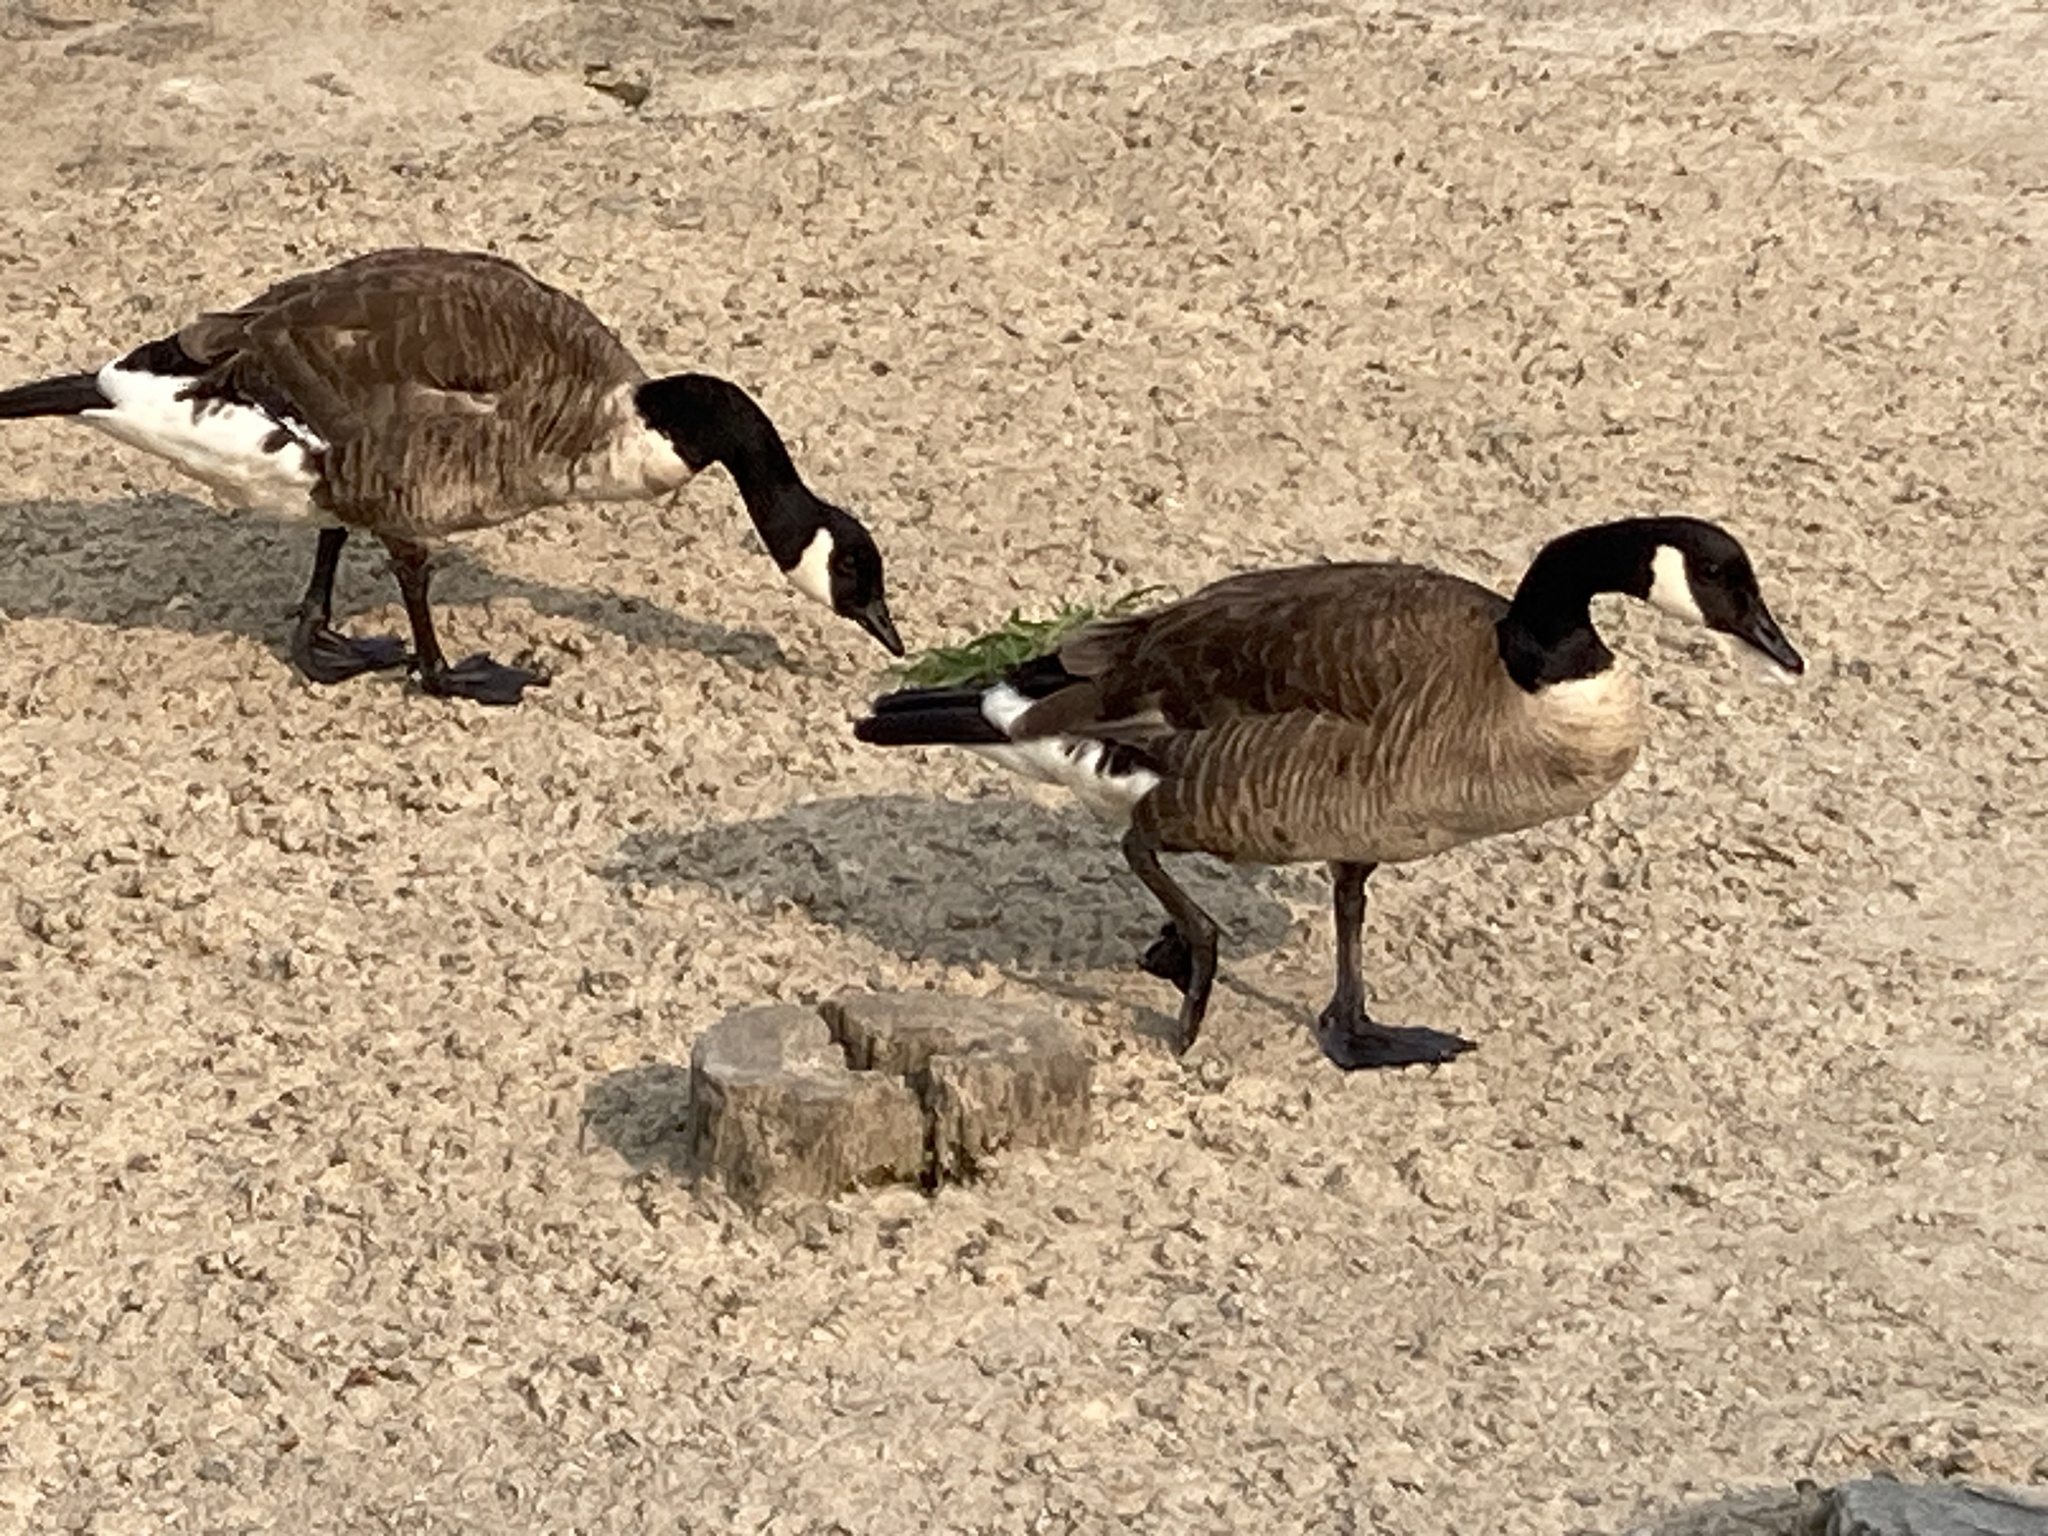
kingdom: Animalia
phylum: Chordata
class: Aves
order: Anseriformes
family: Anatidae
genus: Branta
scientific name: Branta canadensis
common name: Canada goose
